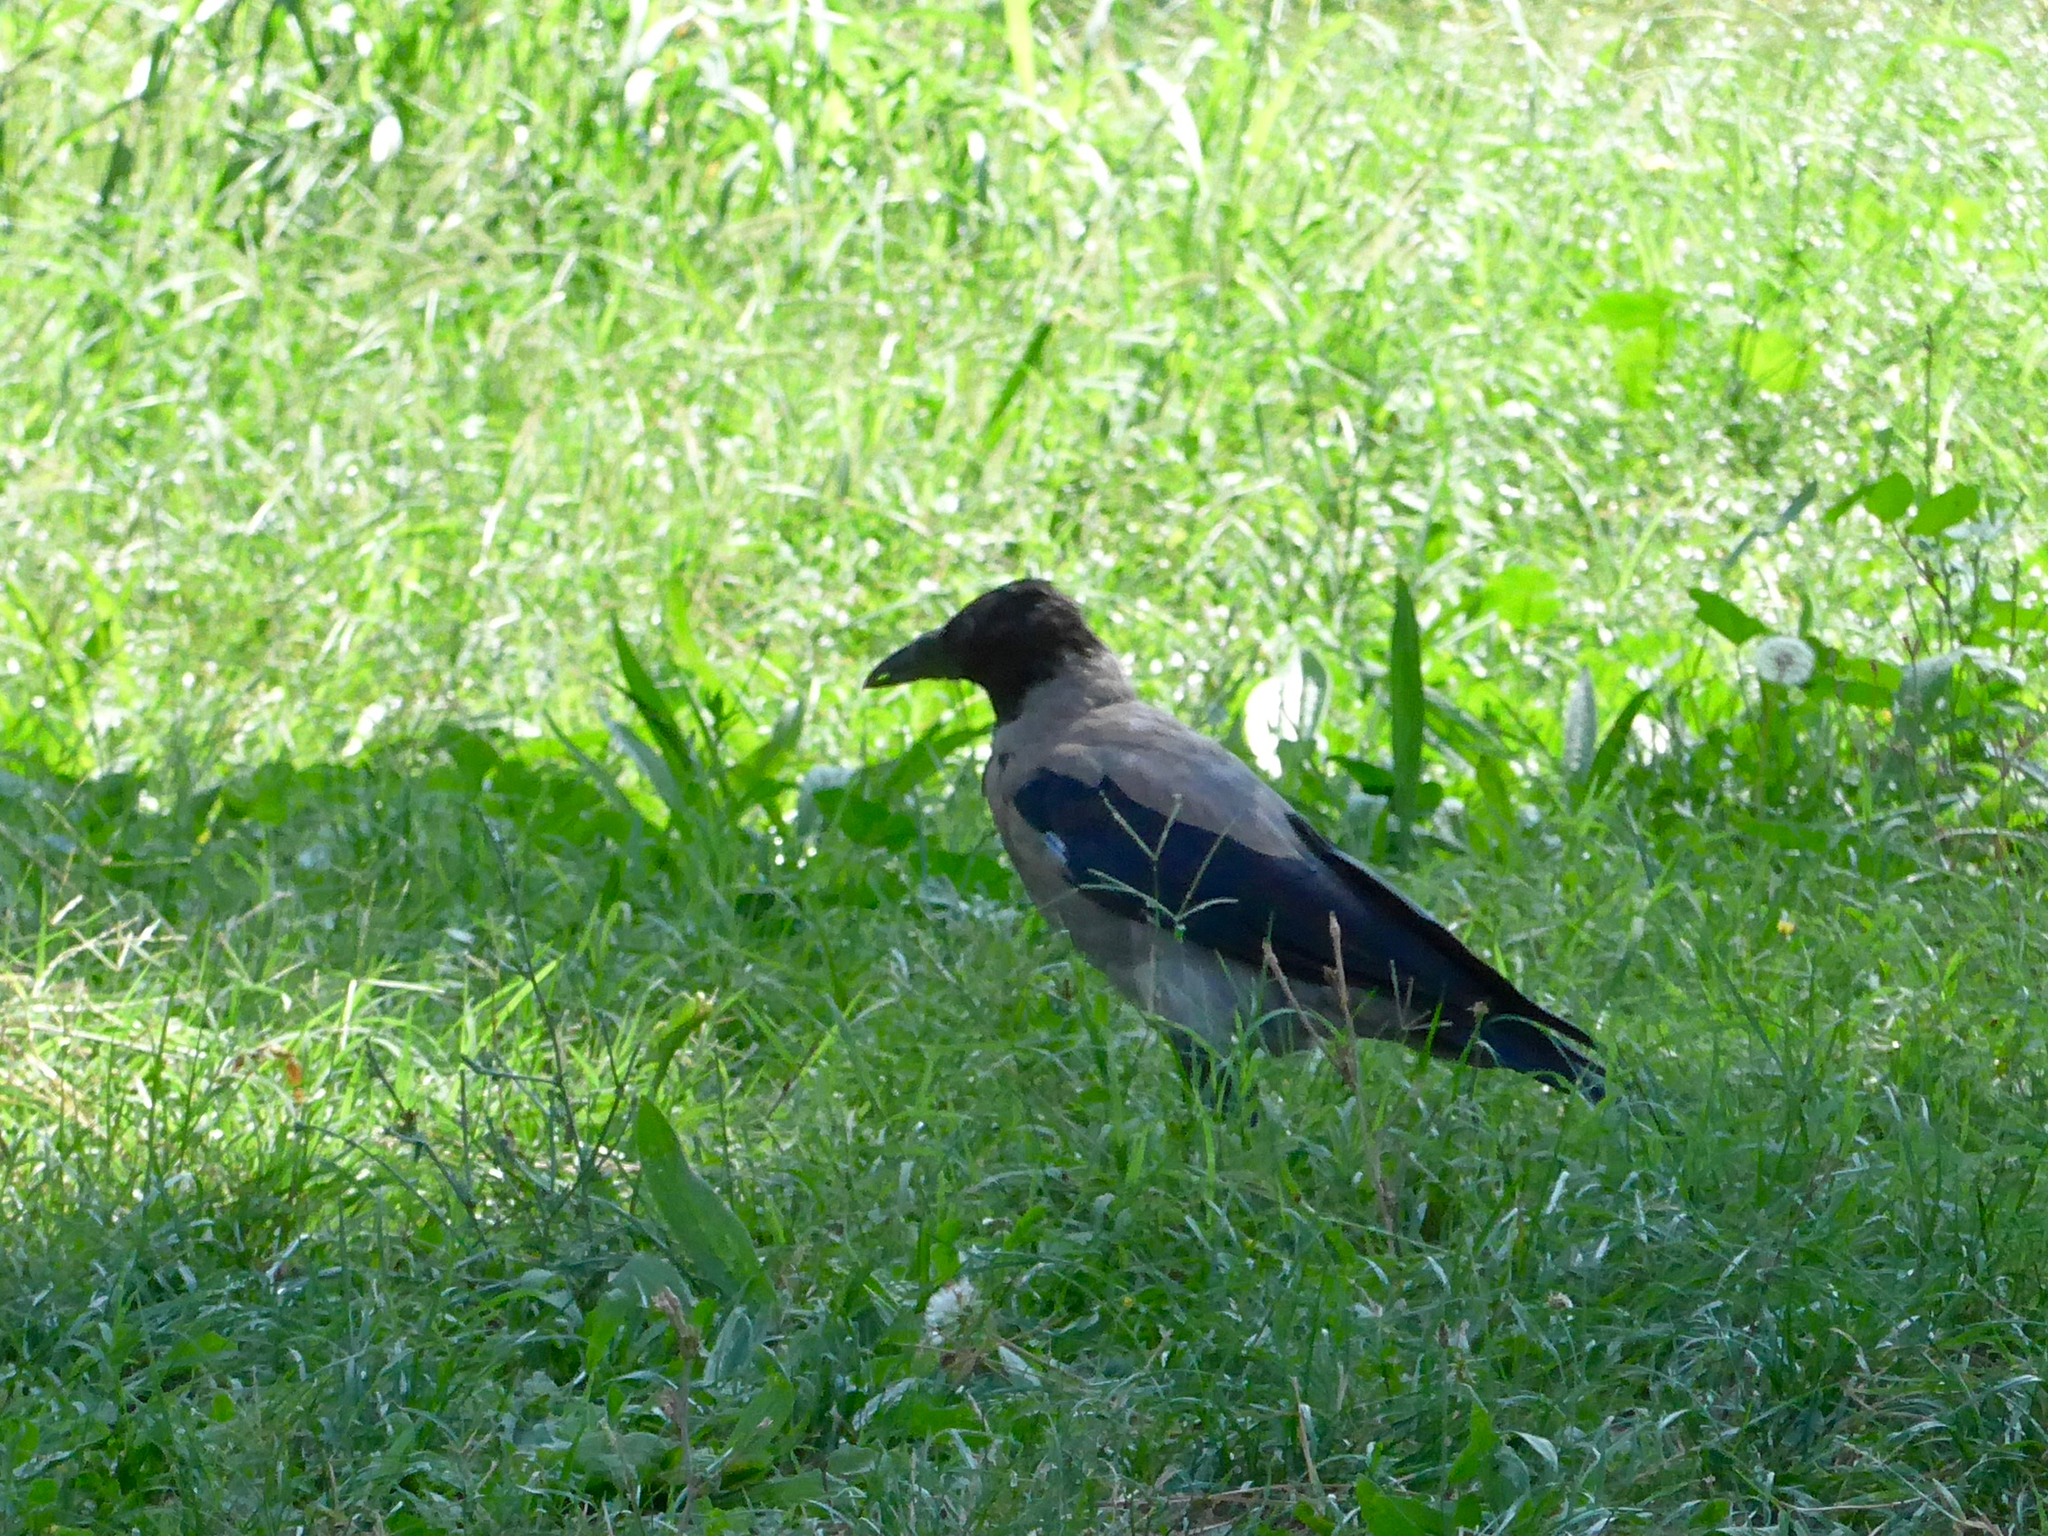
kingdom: Animalia
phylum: Chordata
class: Aves
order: Passeriformes
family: Corvidae
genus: Corvus
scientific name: Corvus cornix
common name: Hooded crow
